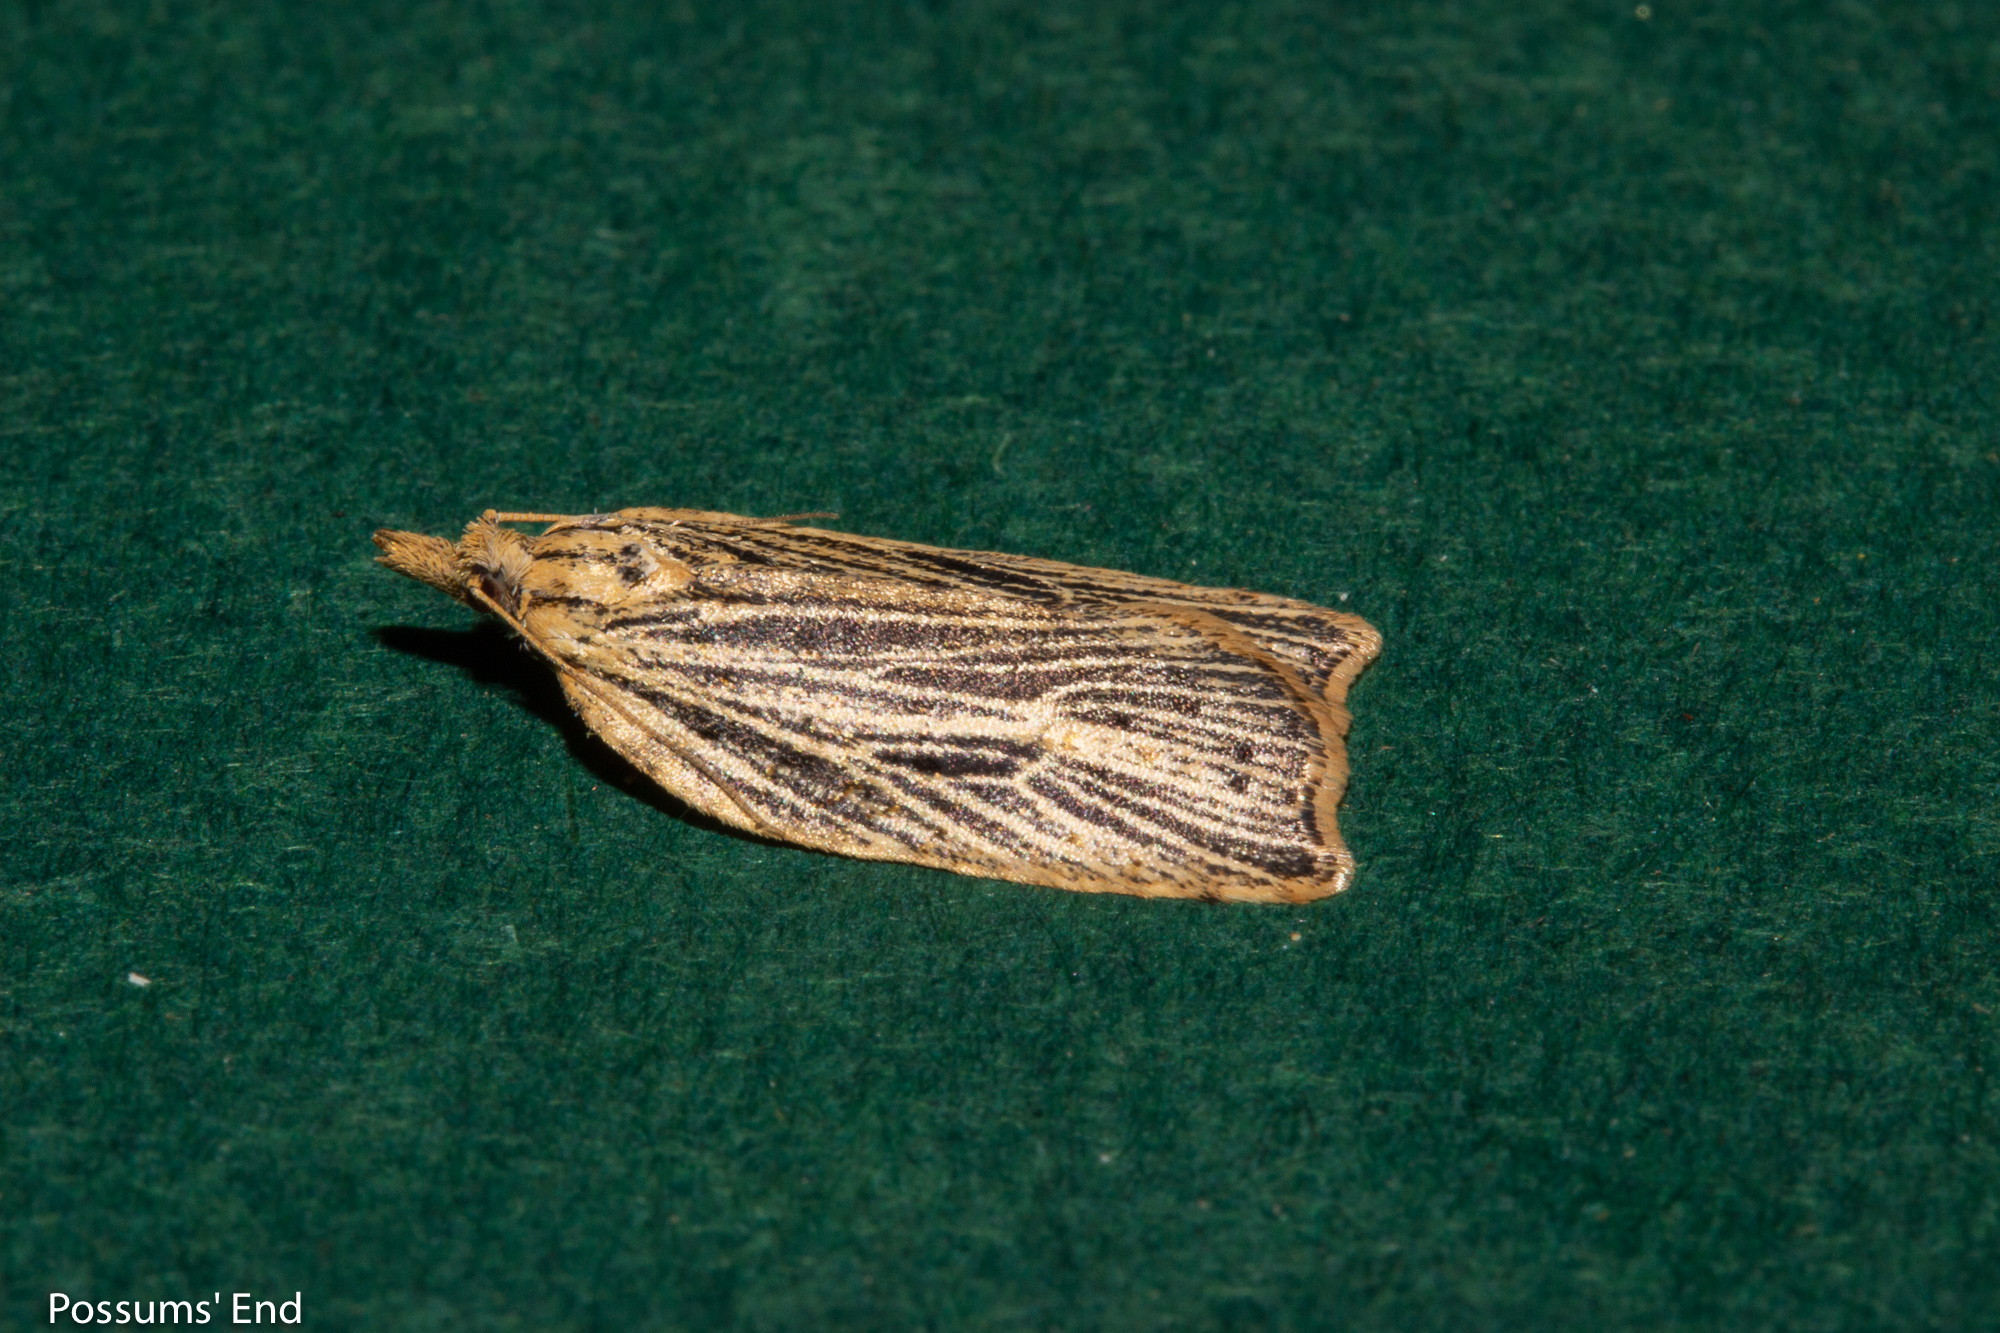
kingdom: Animalia
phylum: Arthropoda
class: Insecta
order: Lepidoptera
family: Tortricidae
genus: Planotortrix
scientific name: Planotortrix notophaea
